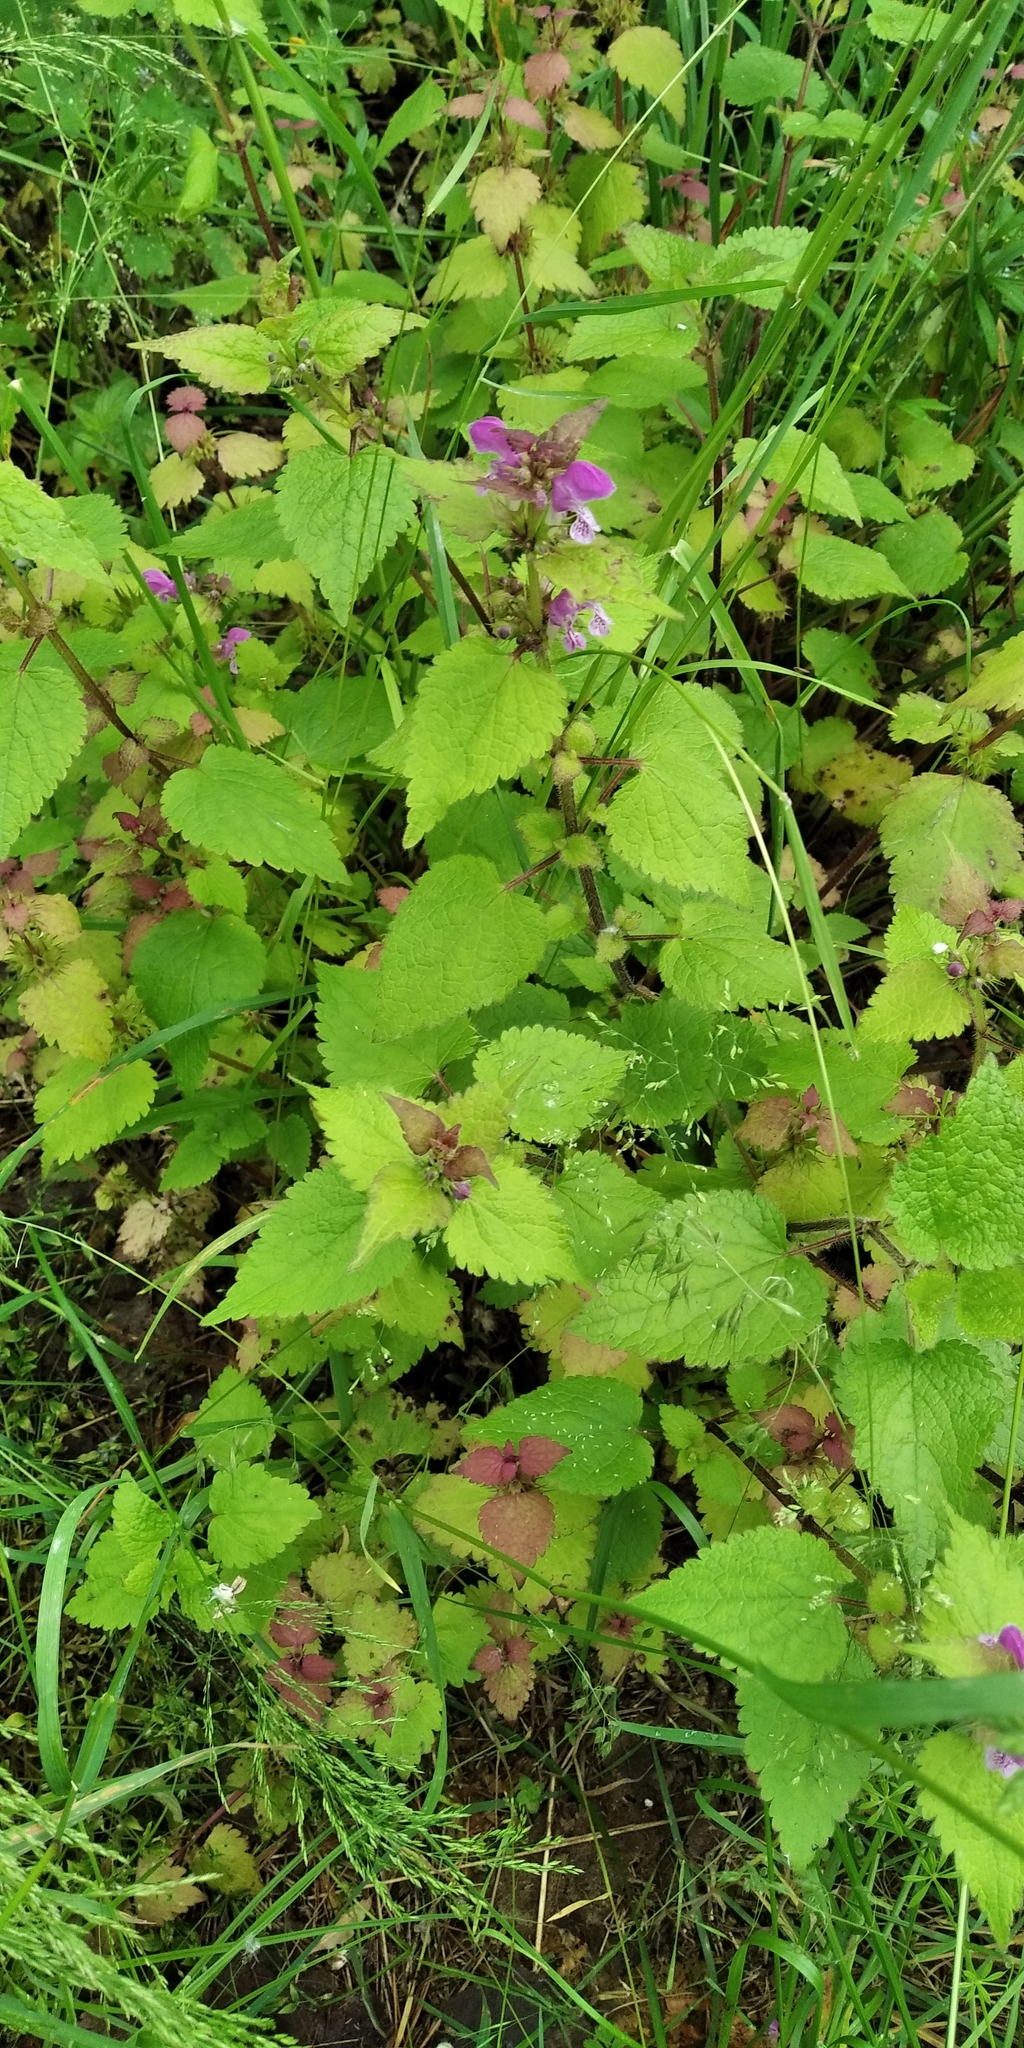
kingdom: Plantae
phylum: Tracheophyta
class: Magnoliopsida
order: Lamiales
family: Lamiaceae
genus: Lamium
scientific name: Lamium maculatum
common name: Spotted dead-nettle
